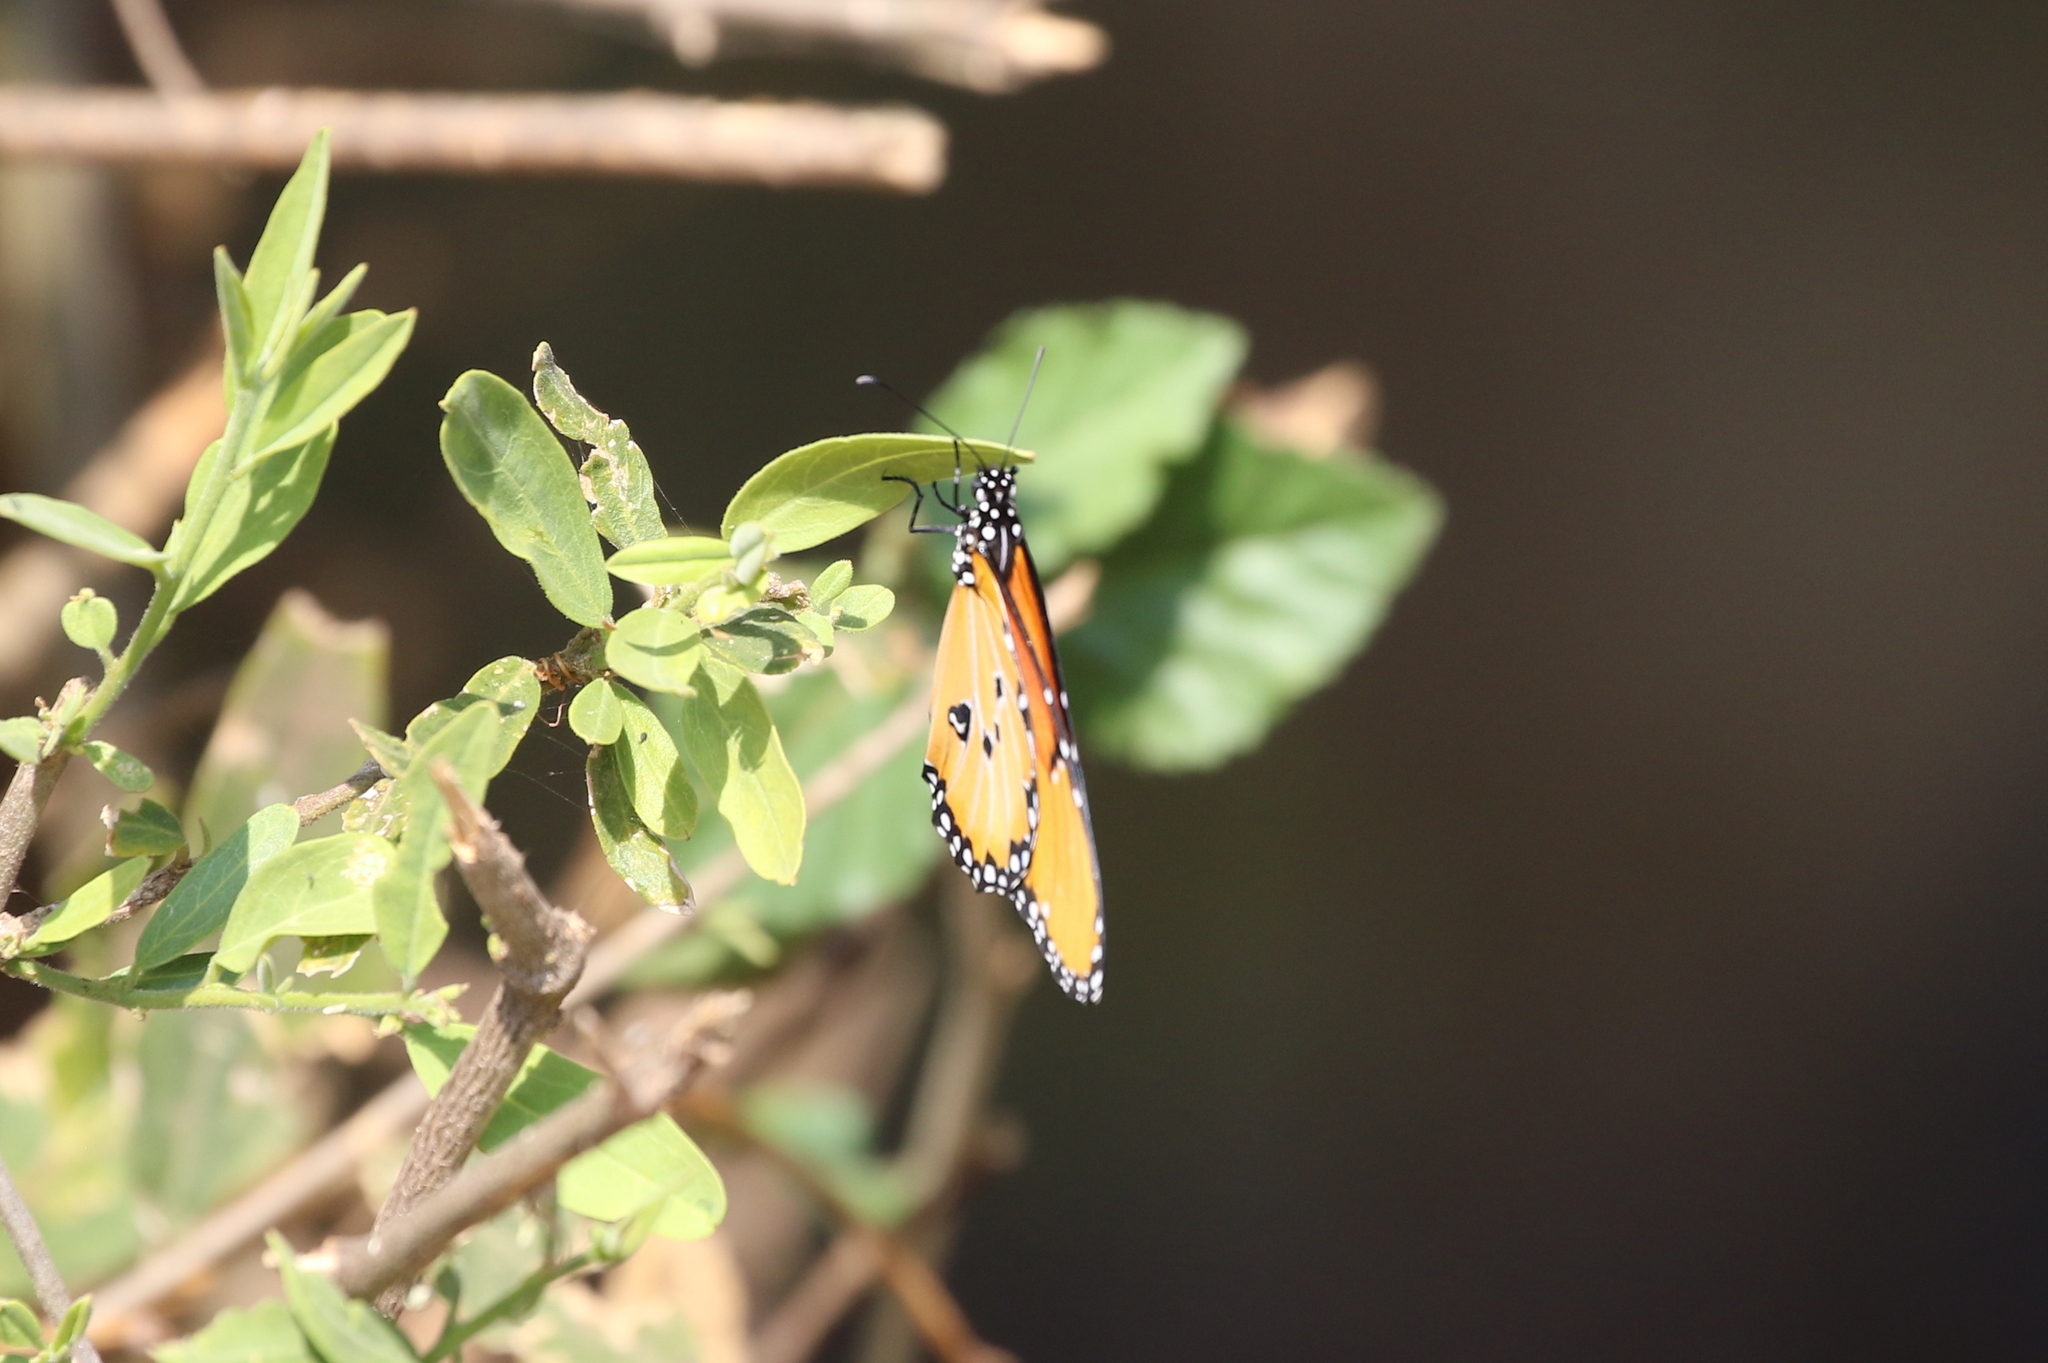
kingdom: Animalia
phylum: Arthropoda
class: Insecta
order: Lepidoptera
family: Nymphalidae
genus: Danaus
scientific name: Danaus chrysippus
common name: Plain tiger
